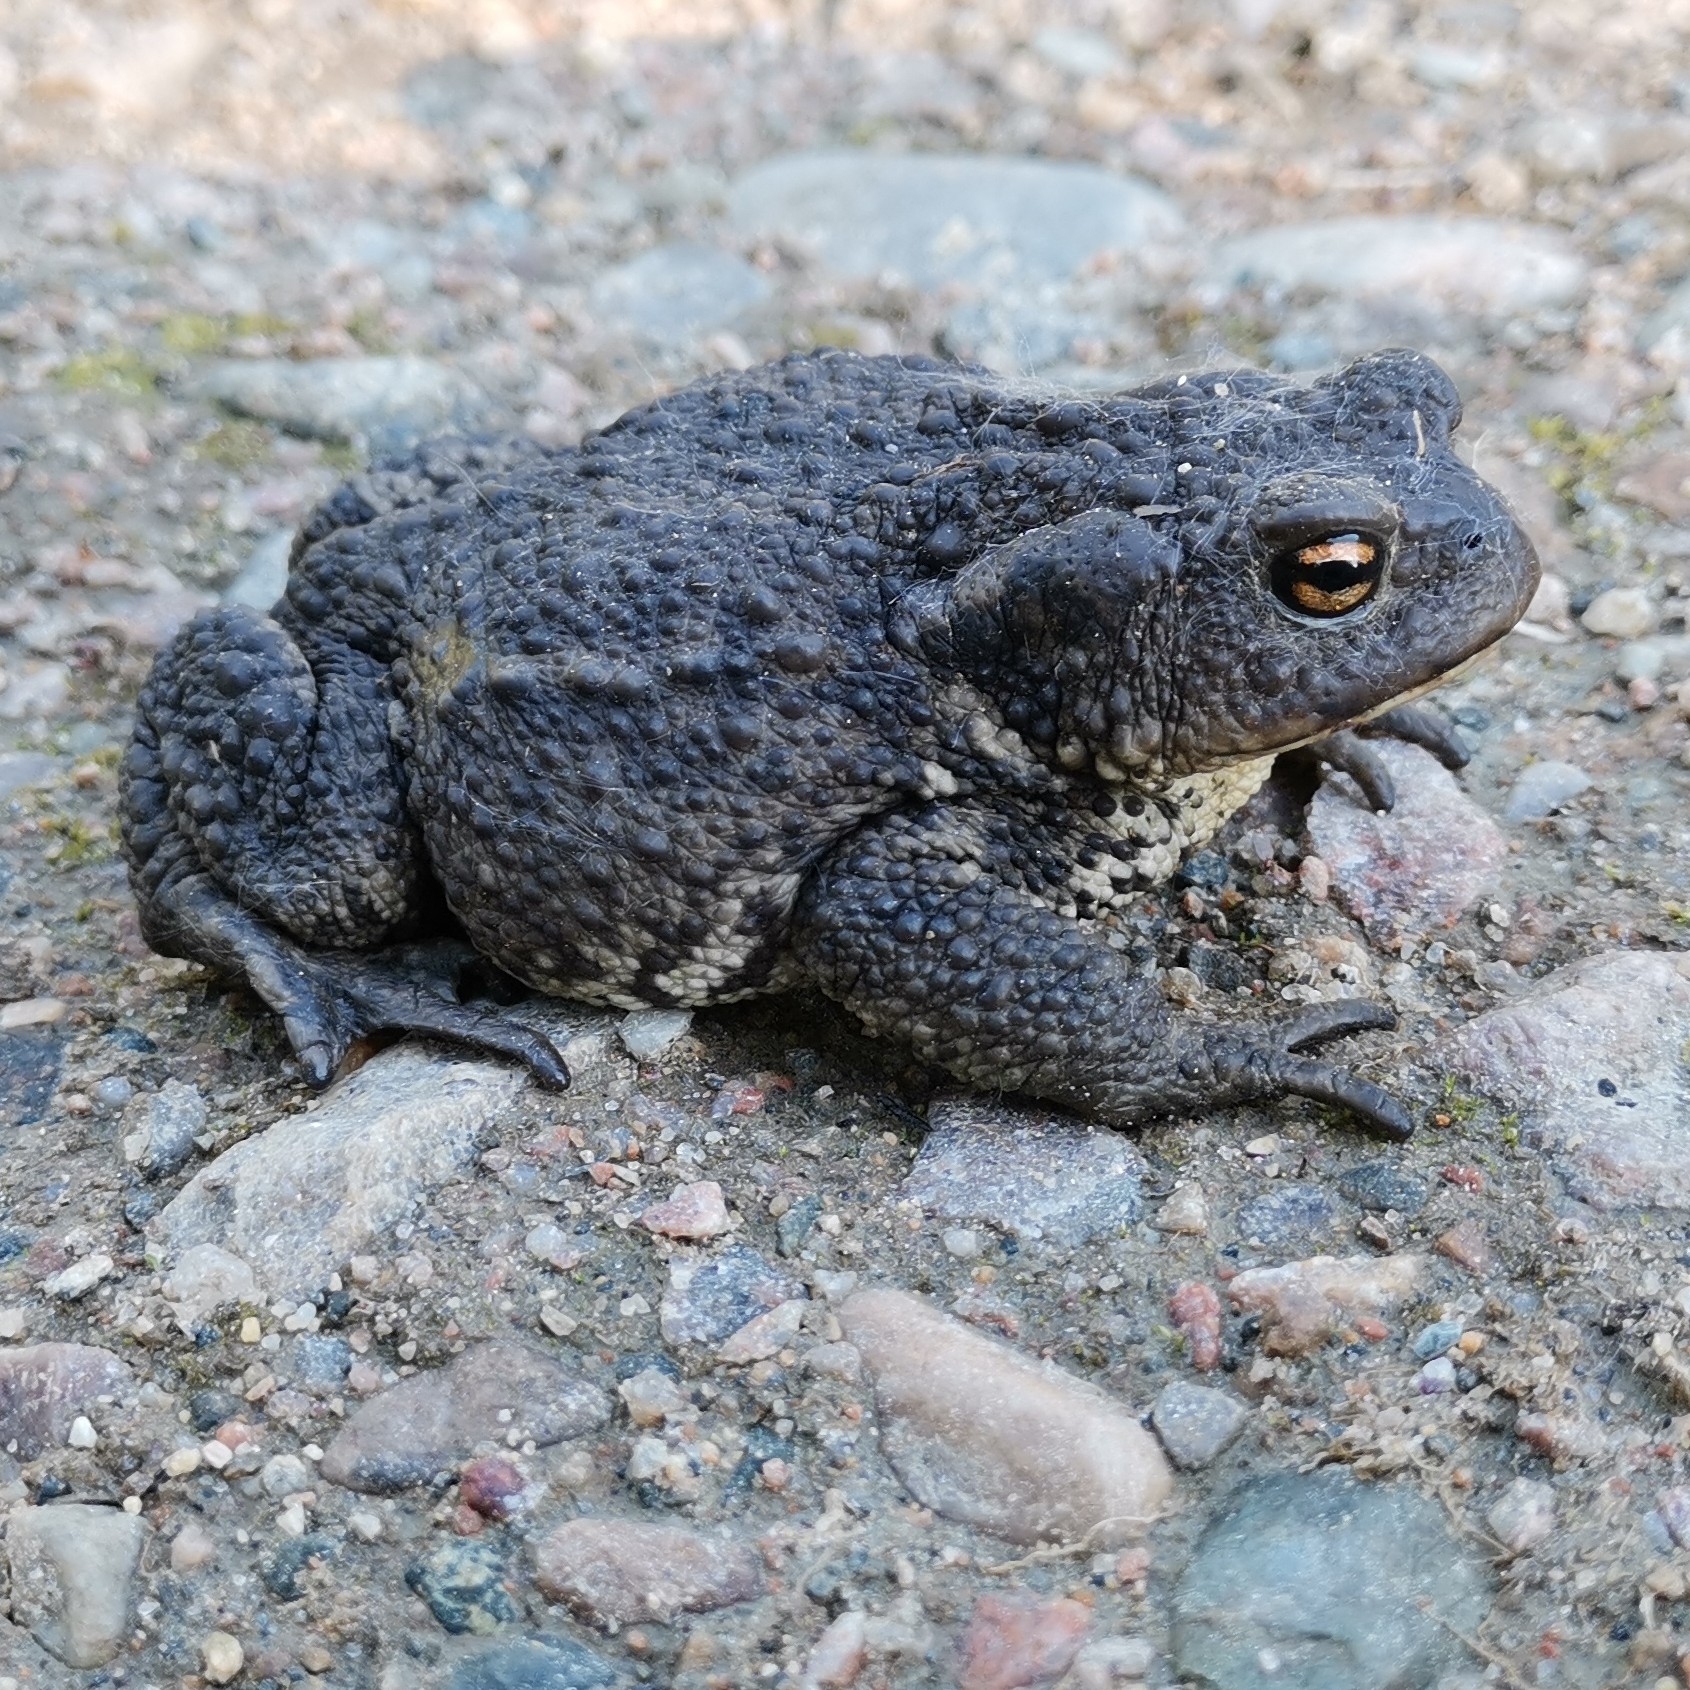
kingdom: Animalia
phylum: Chordata
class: Amphibia
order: Anura
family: Bufonidae
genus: Bufo
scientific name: Bufo bufo
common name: Common toad
